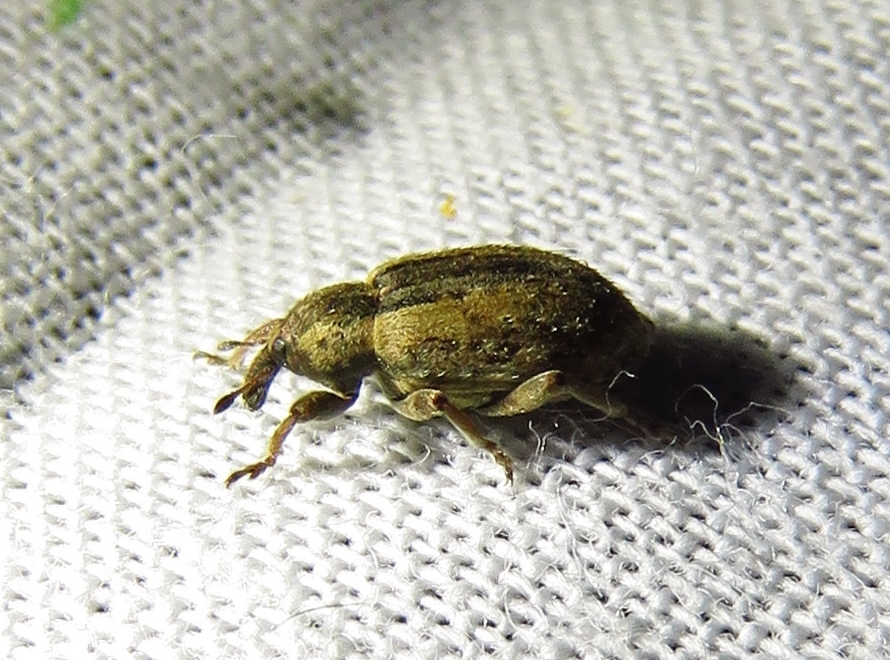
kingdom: Animalia
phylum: Arthropoda
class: Insecta
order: Coleoptera
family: Curculionidae
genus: Hypera
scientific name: Hypera postica
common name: Weevil
